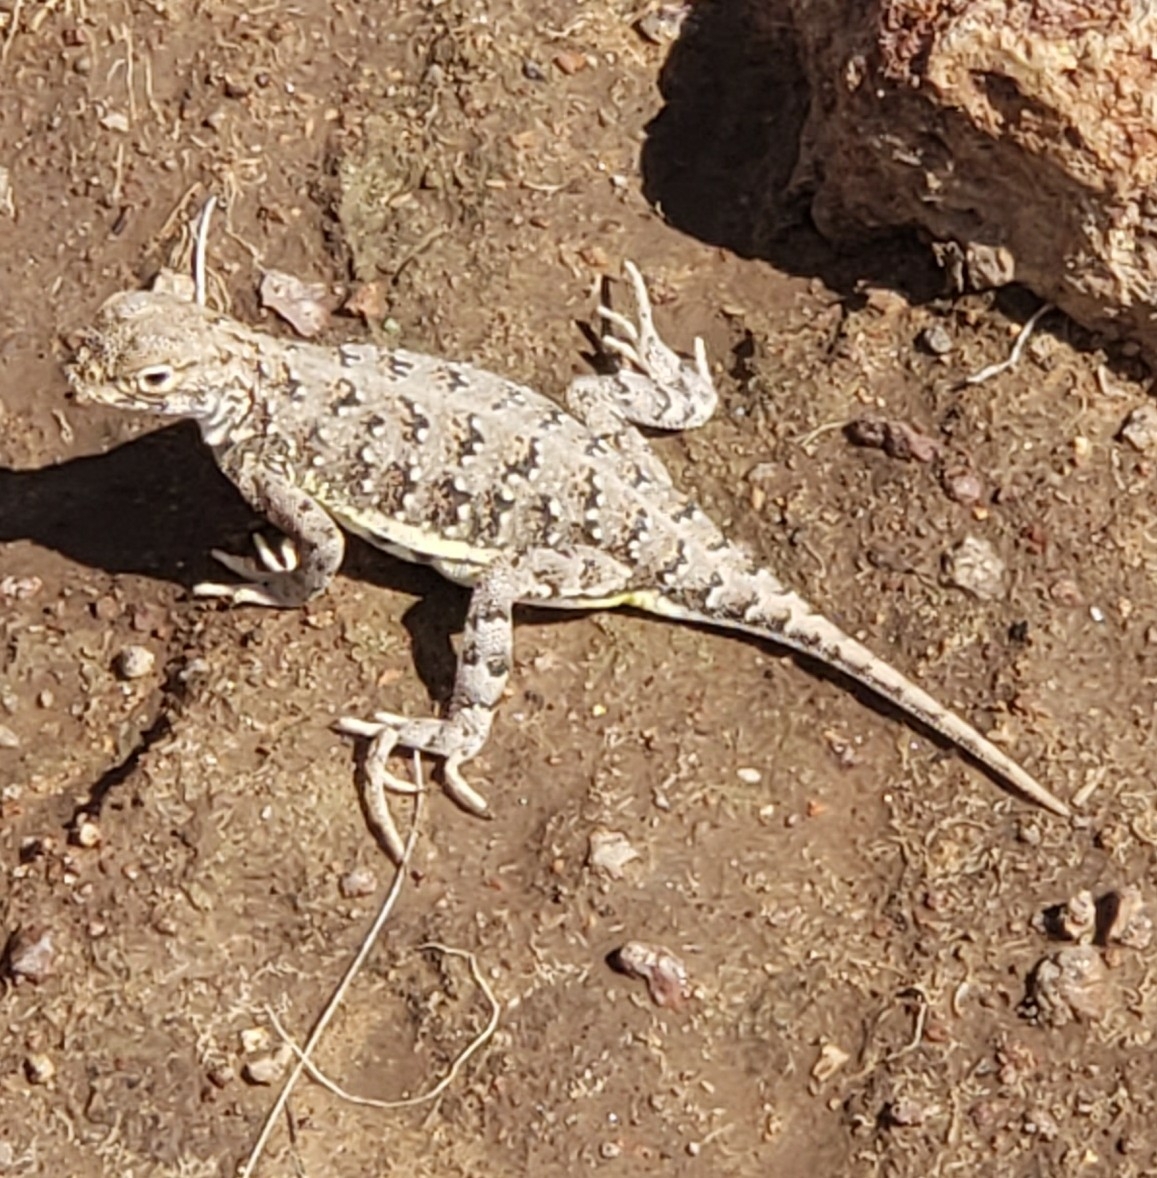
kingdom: Animalia
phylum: Chordata
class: Squamata
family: Phrynosomatidae
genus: Holbrookia
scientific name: Holbrookia maculata
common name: Lesser earless lizard
